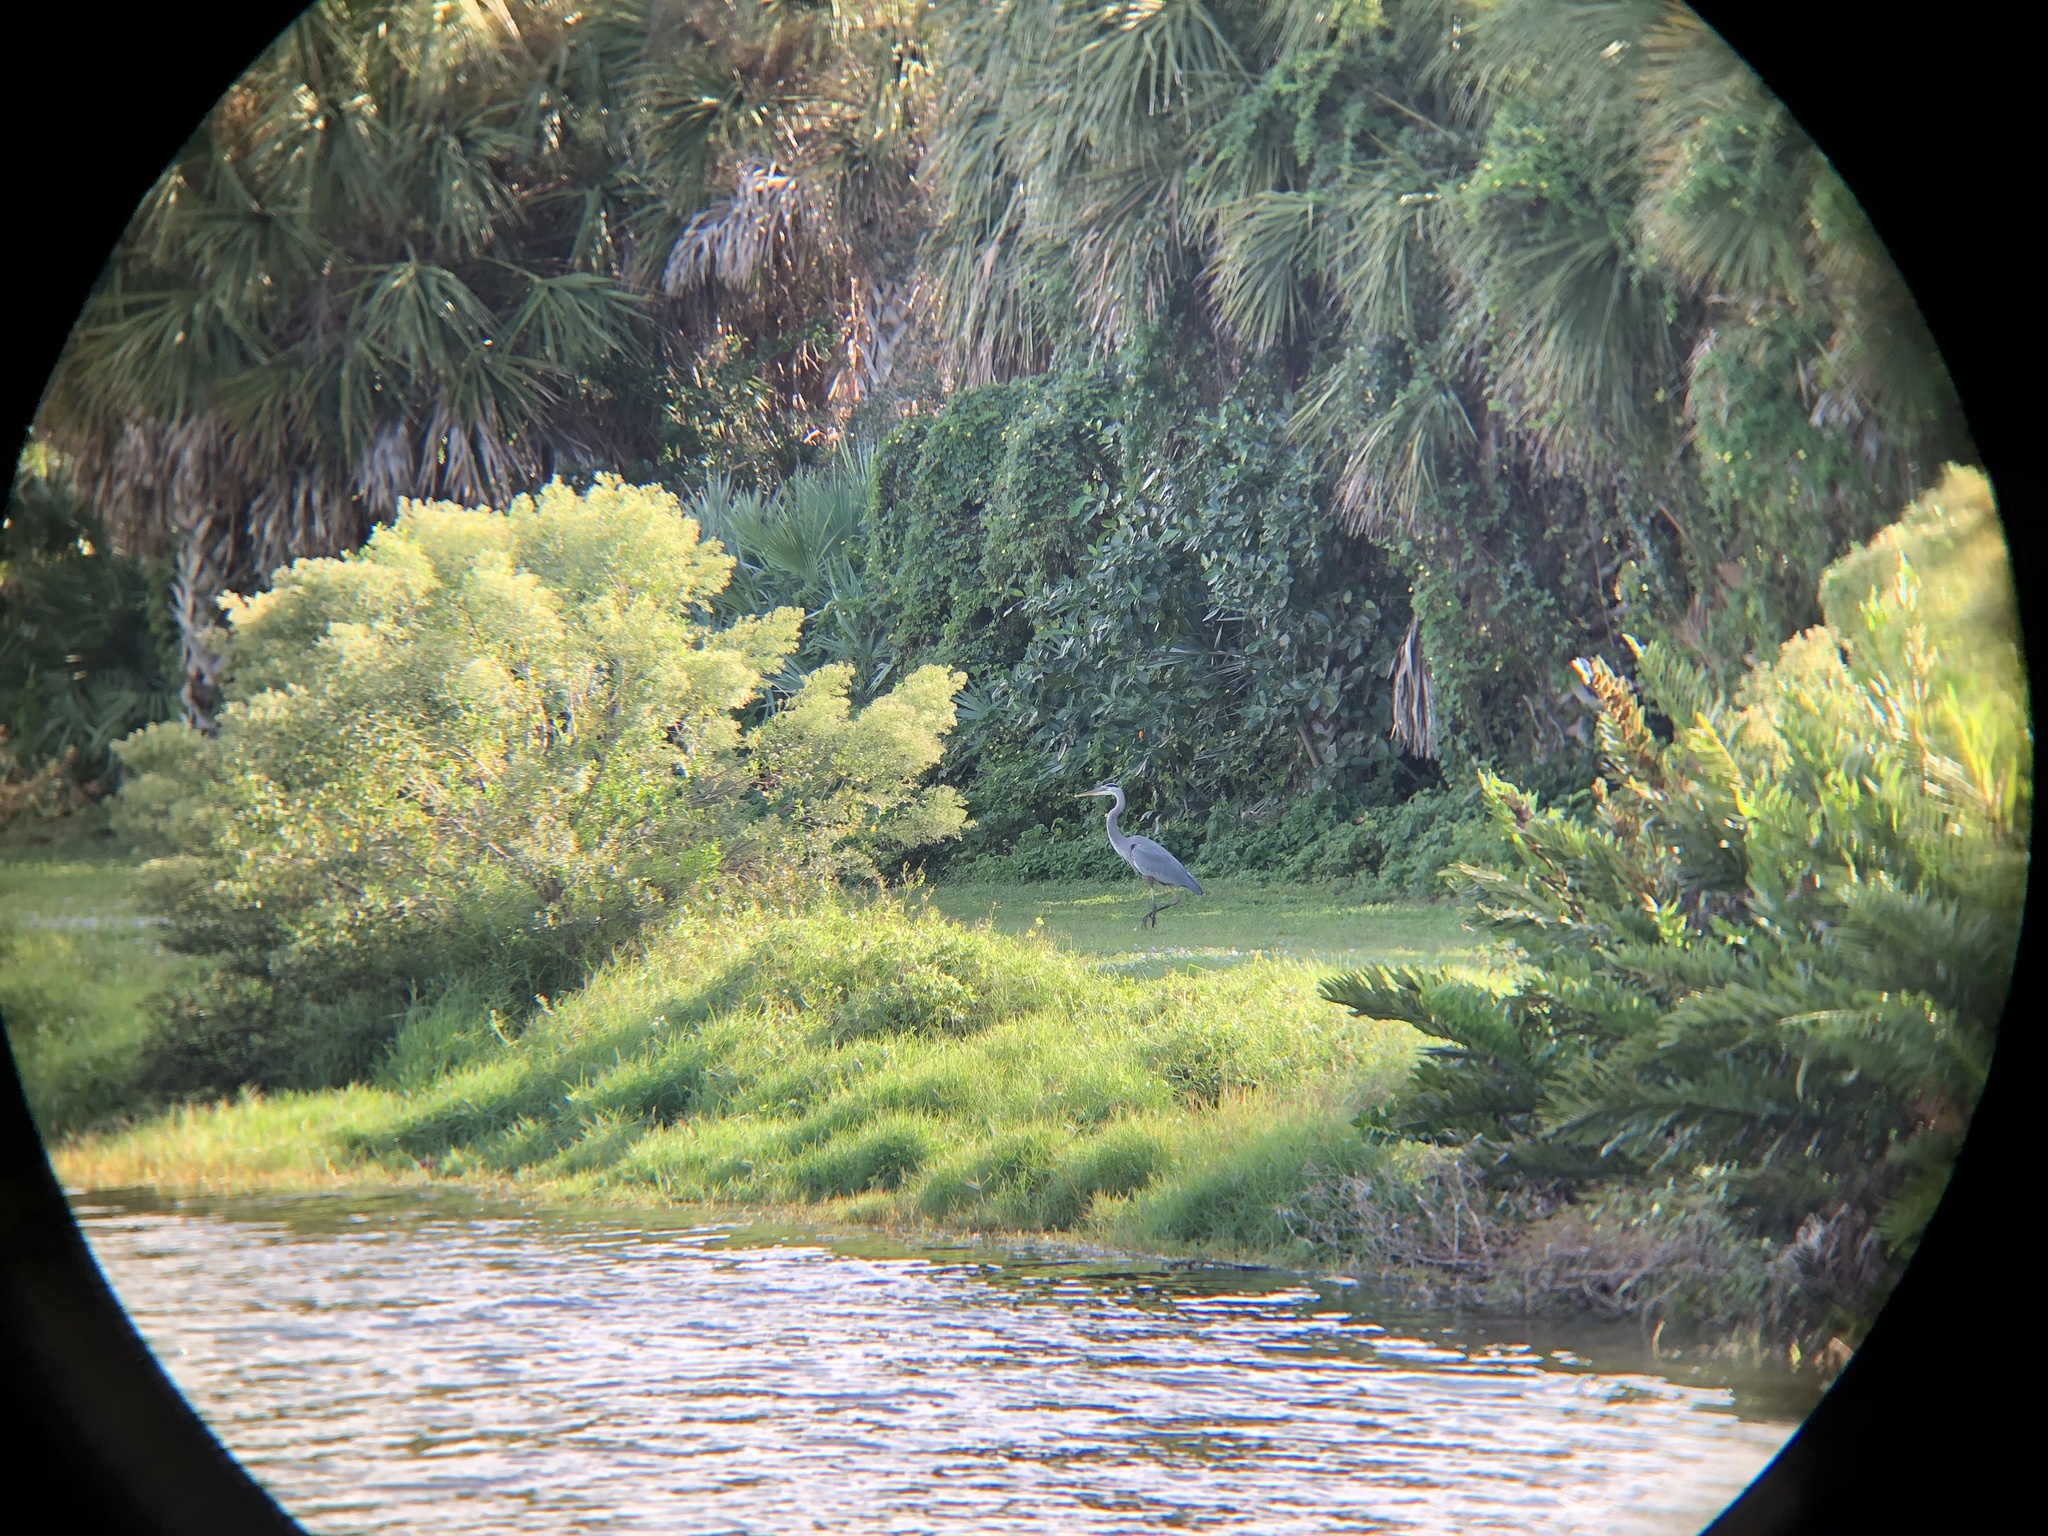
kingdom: Animalia
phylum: Chordata
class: Aves
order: Pelecaniformes
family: Ardeidae
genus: Ardea
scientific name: Ardea herodias
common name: Great blue heron
